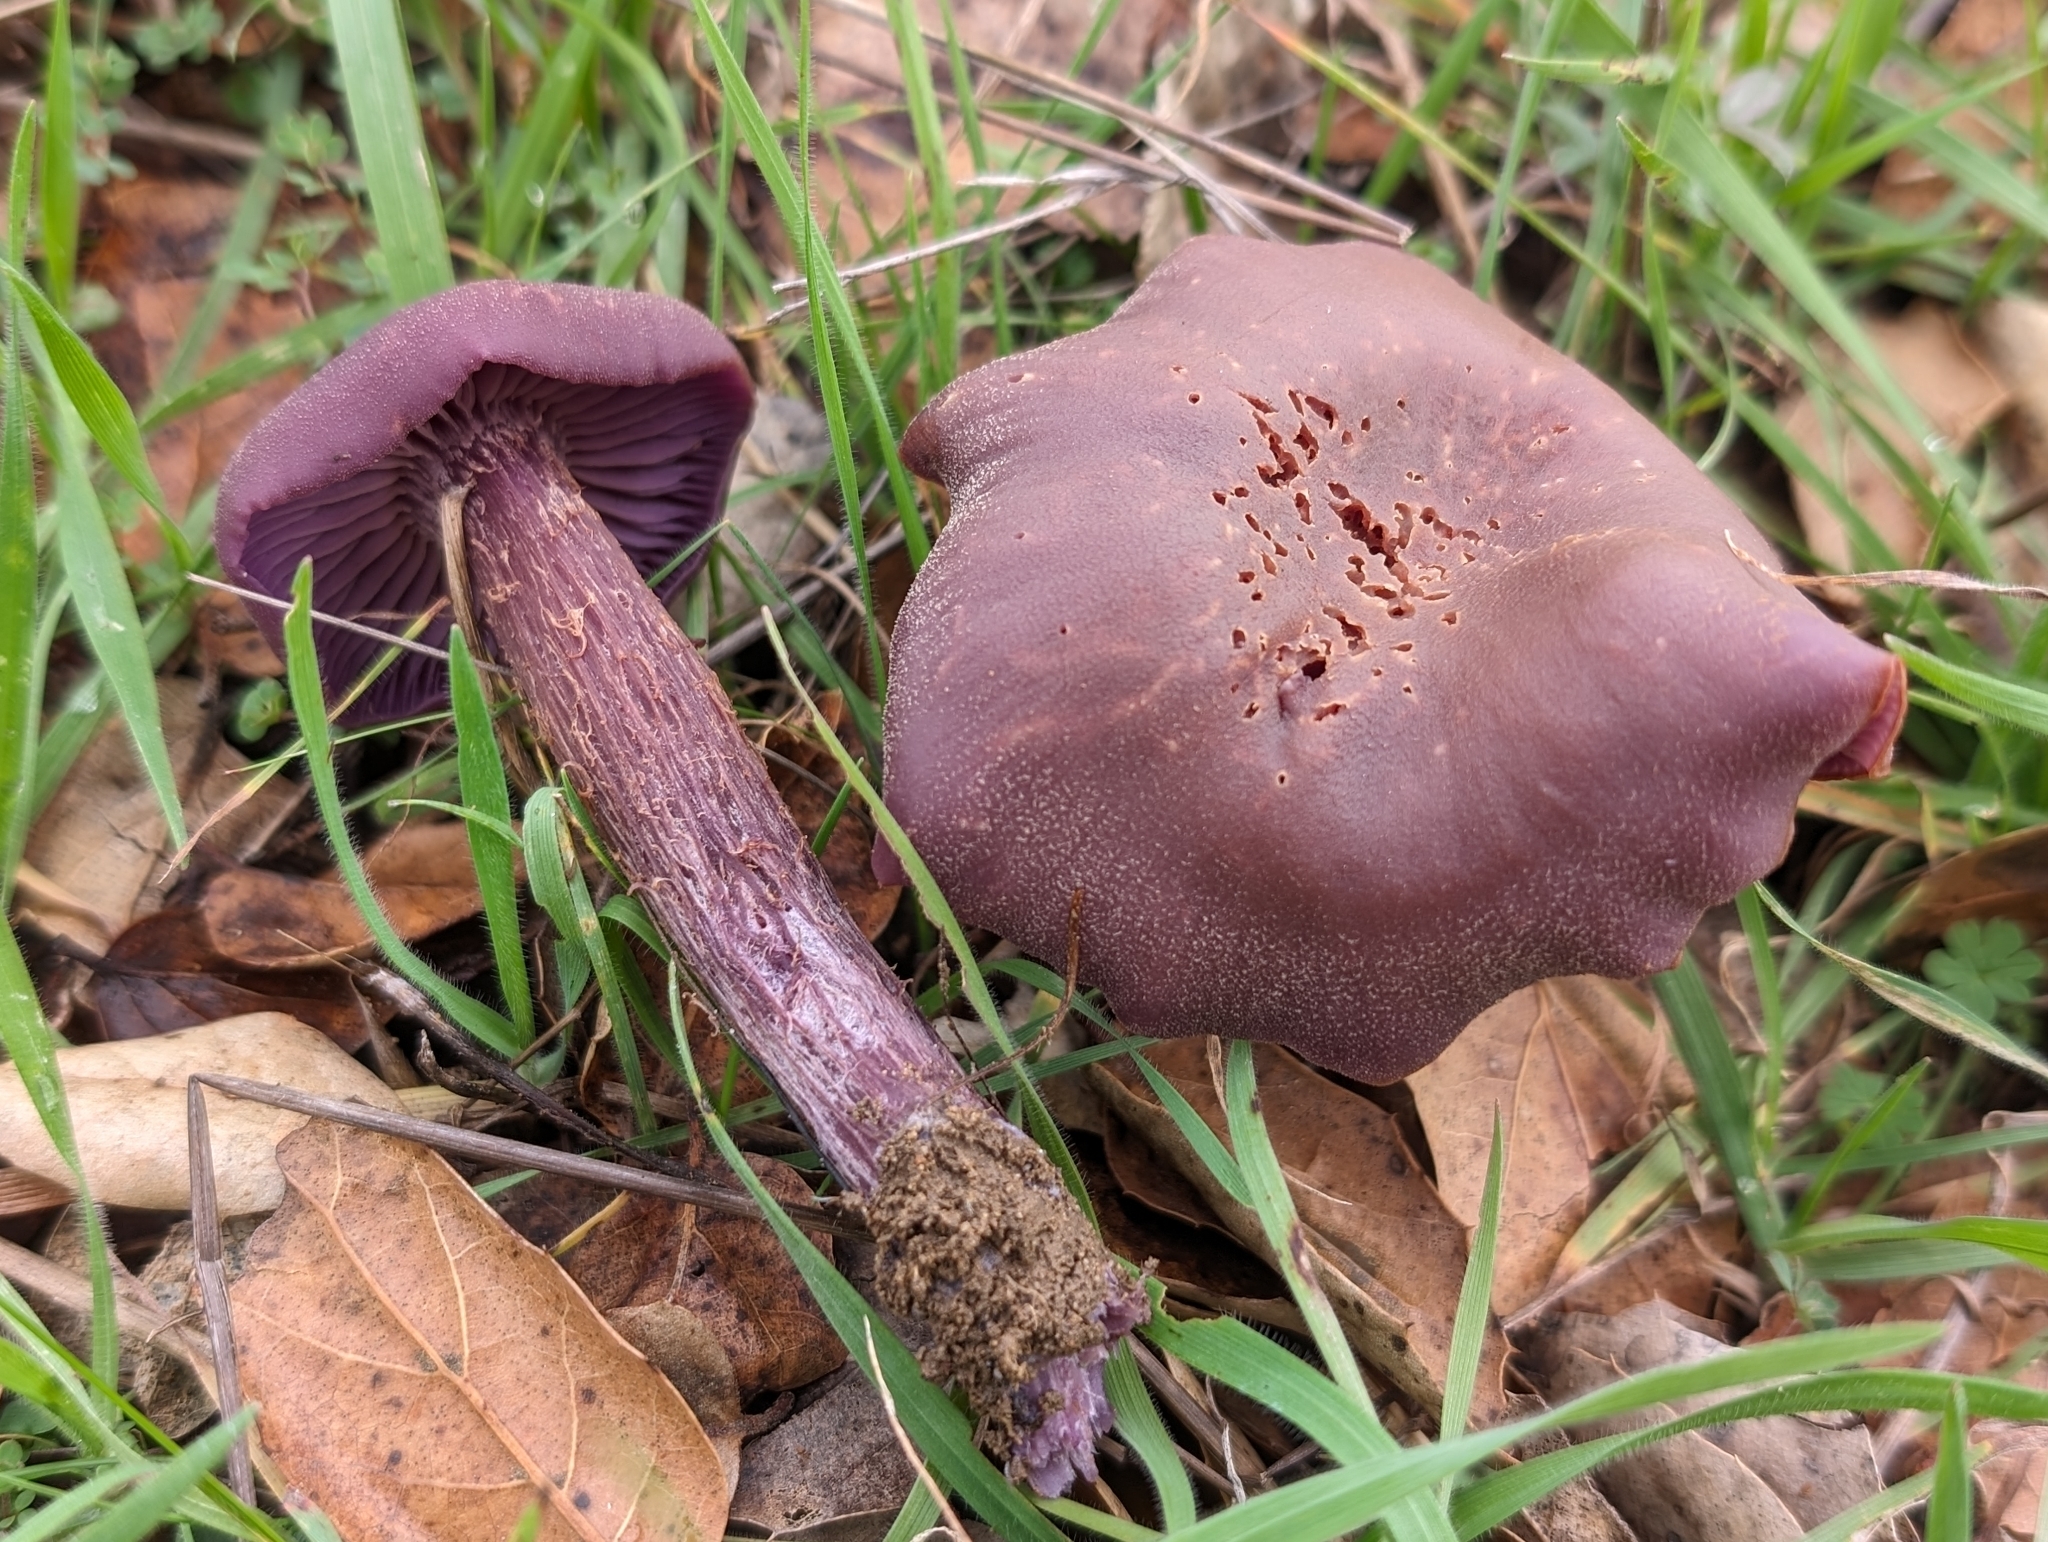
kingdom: Fungi
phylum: Basidiomycota
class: Agaricomycetes
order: Agaricales
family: Hydnangiaceae
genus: Laccaria
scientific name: Laccaria amethysteo-occidentalis
